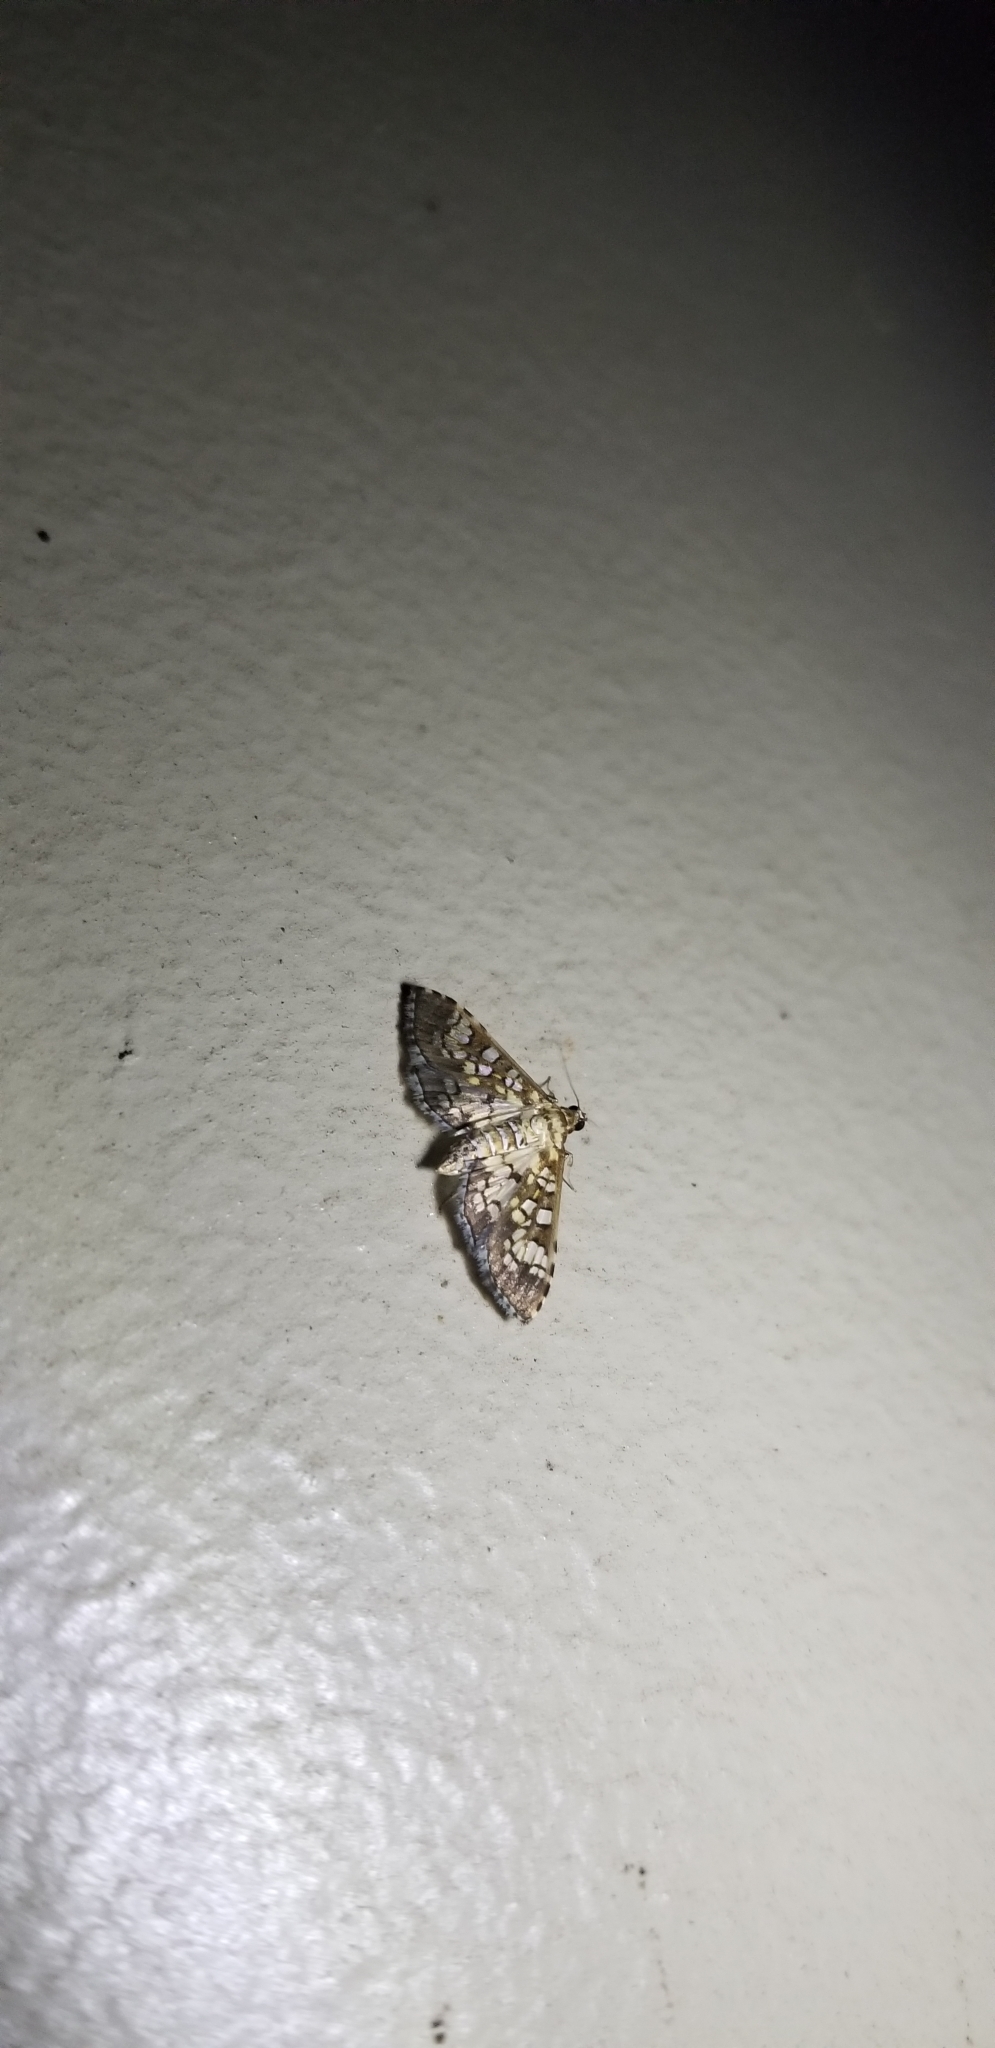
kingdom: Animalia
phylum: Arthropoda
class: Insecta
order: Lepidoptera
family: Crambidae
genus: Samea
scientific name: Samea ecclesialis
